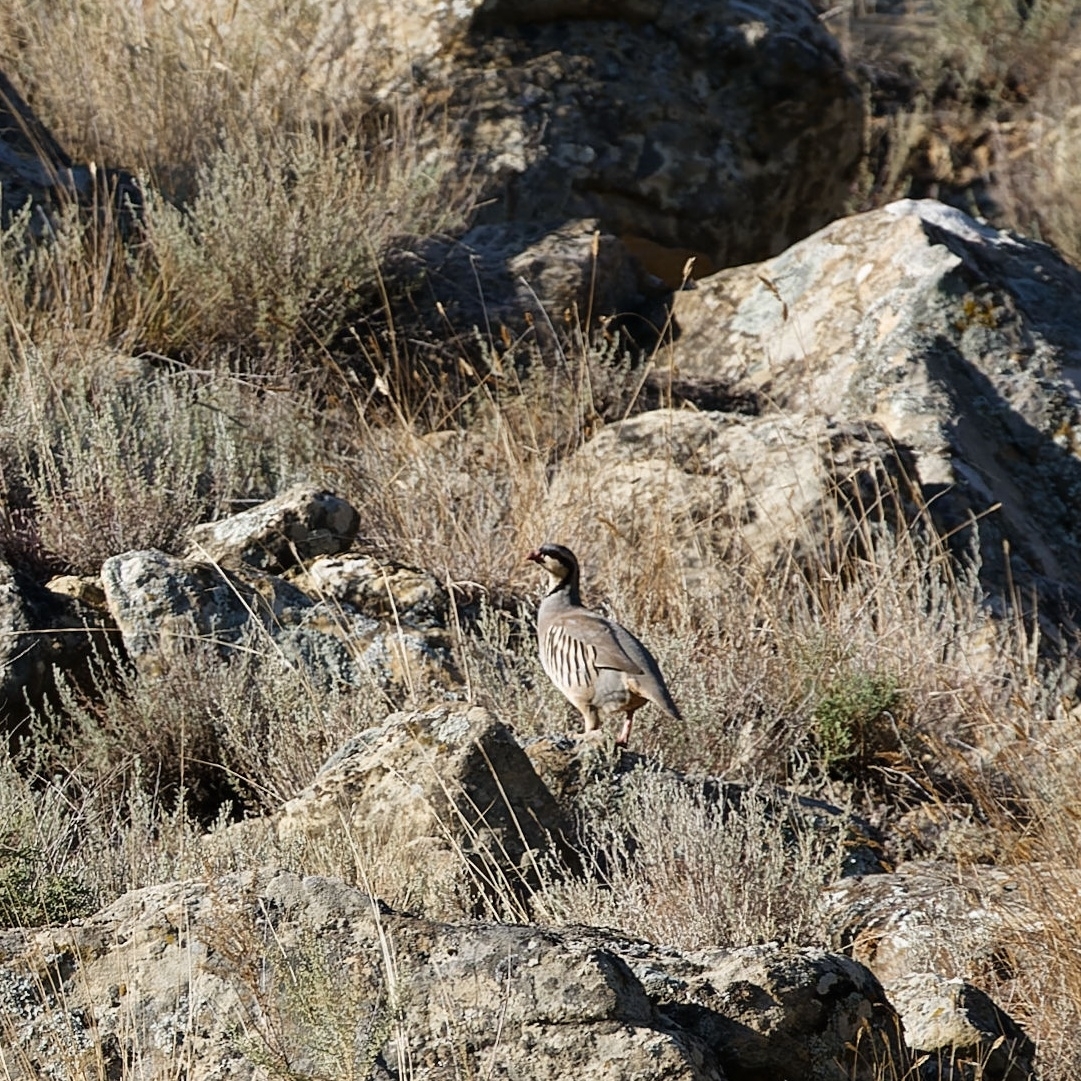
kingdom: Animalia
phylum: Chordata
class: Aves
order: Galliformes
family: Phasianidae
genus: Alectoris
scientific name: Alectoris chukar
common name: Chukar
